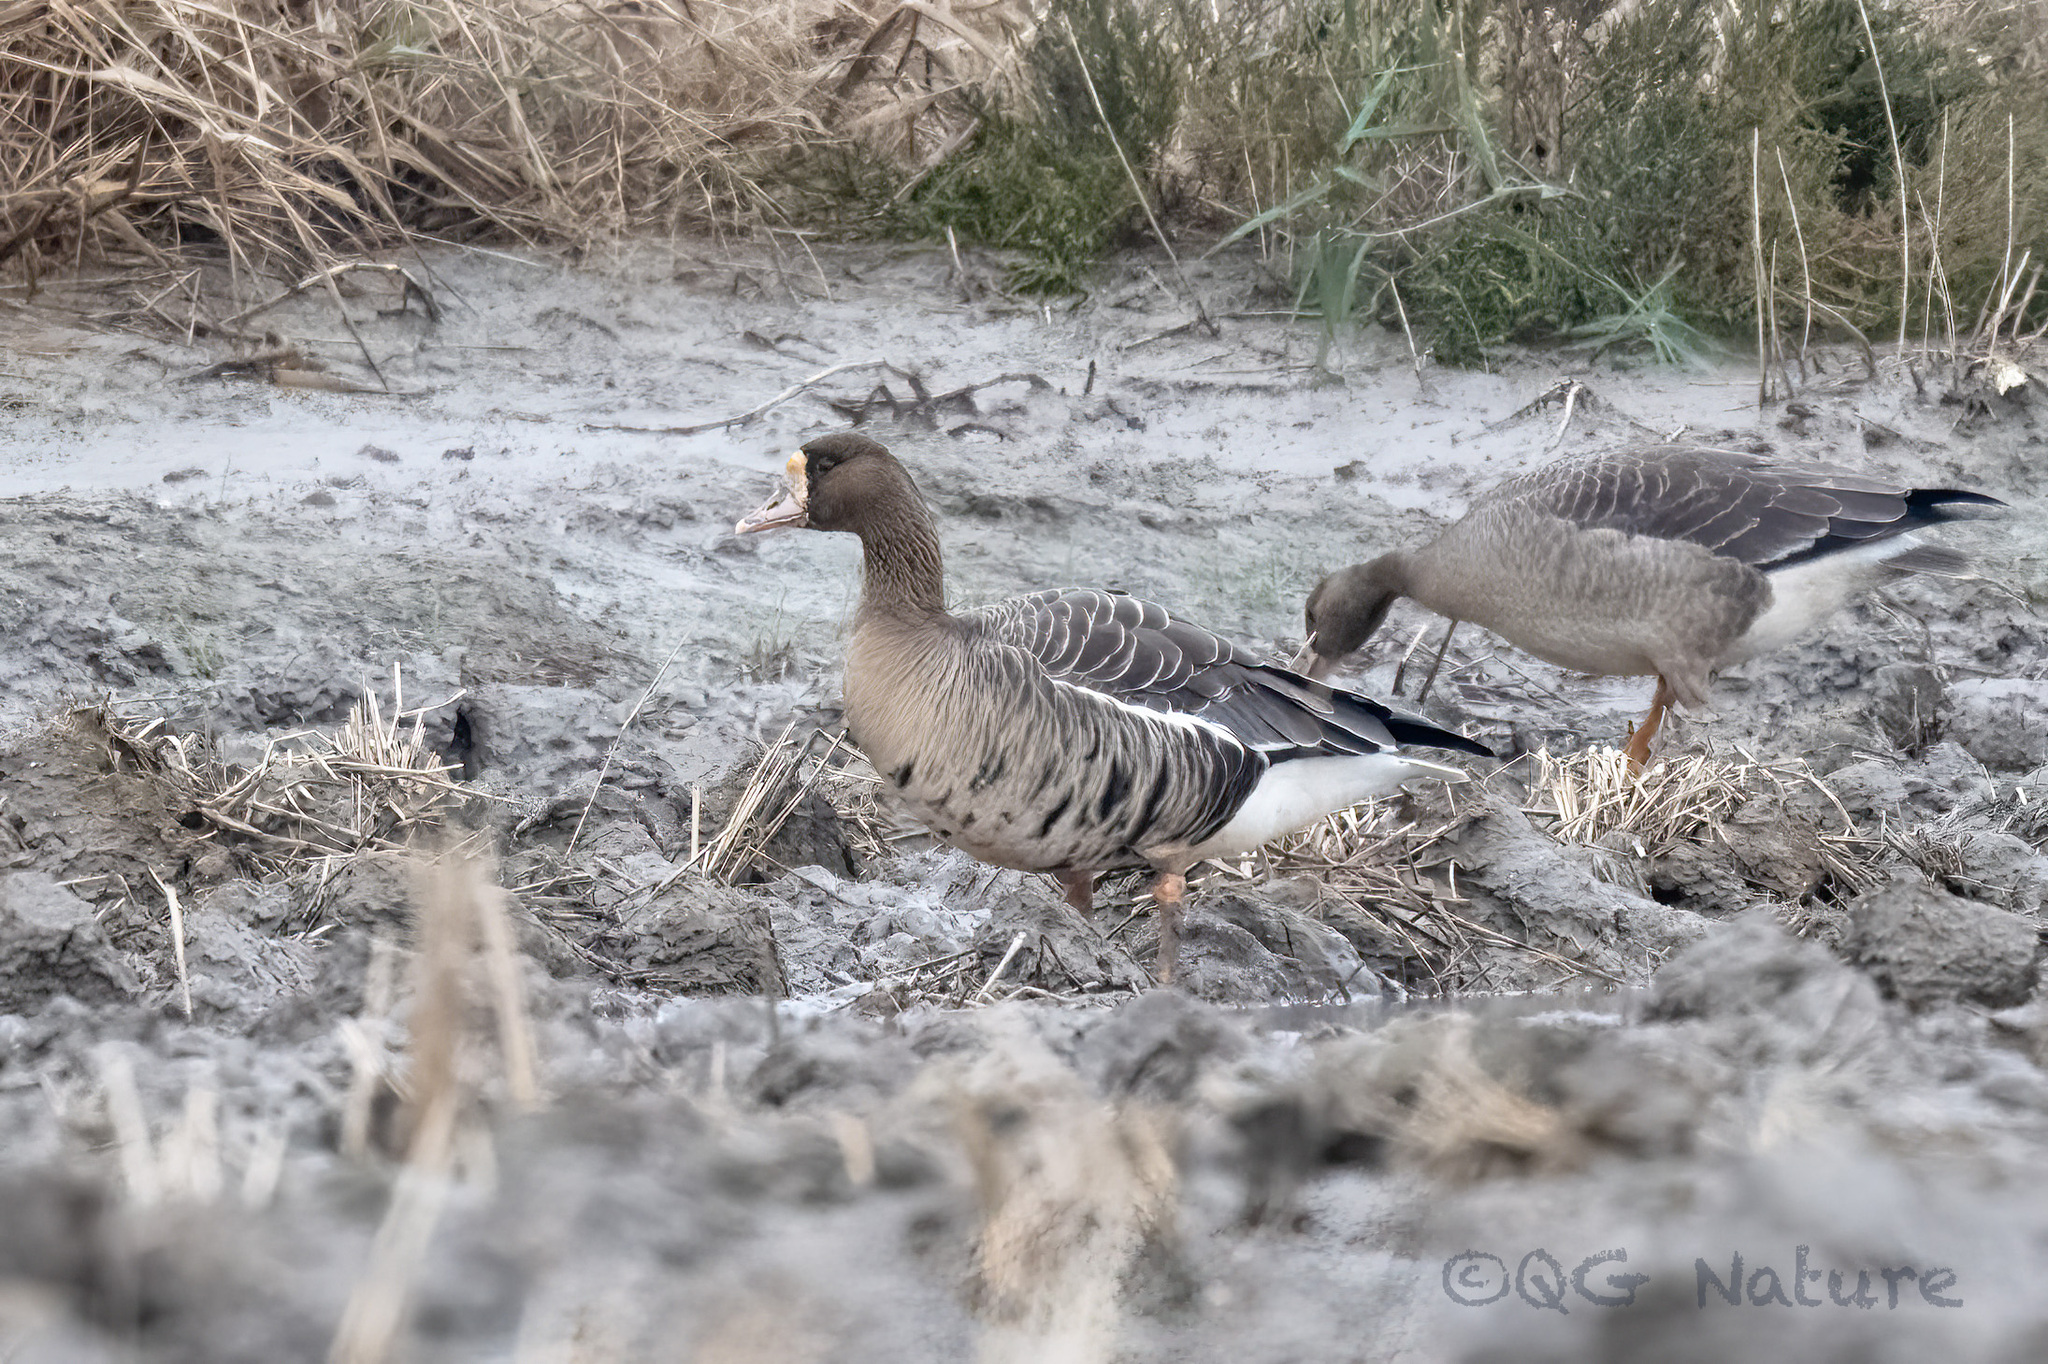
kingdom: Animalia
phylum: Chordata
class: Aves
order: Anseriformes
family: Anatidae
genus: Anser
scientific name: Anser albifrons
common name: Greater white-fronted goose
